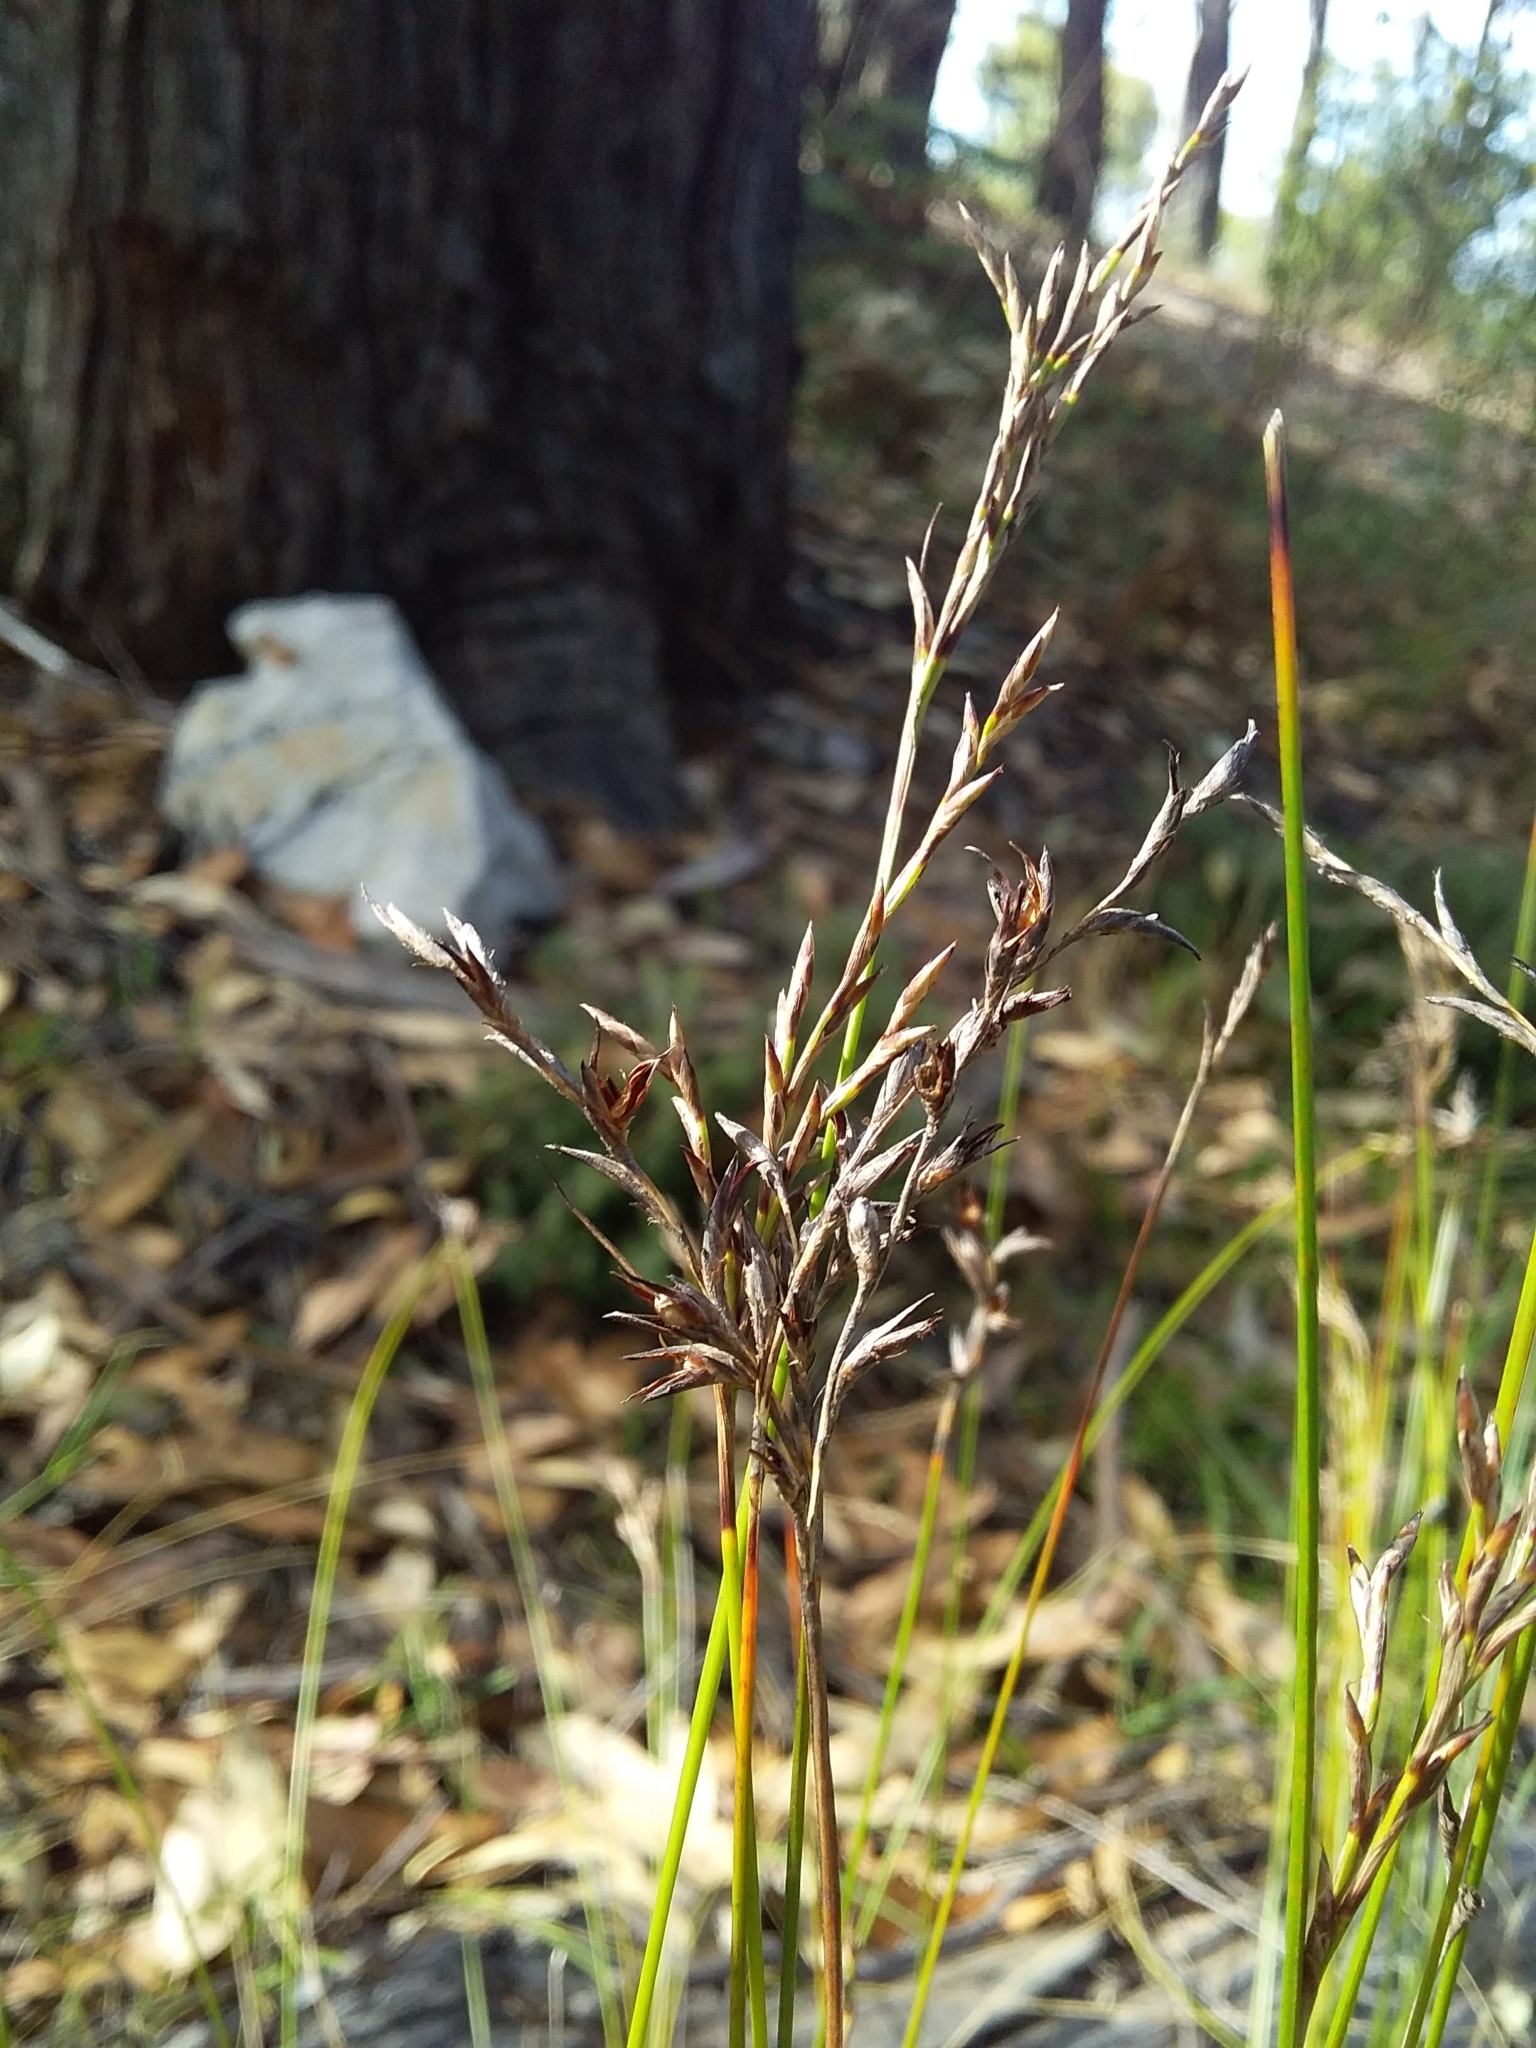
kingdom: Plantae
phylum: Tracheophyta
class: Liliopsida
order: Poales
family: Cyperaceae
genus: Lepidosperma
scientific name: Lepidosperma semiteres
